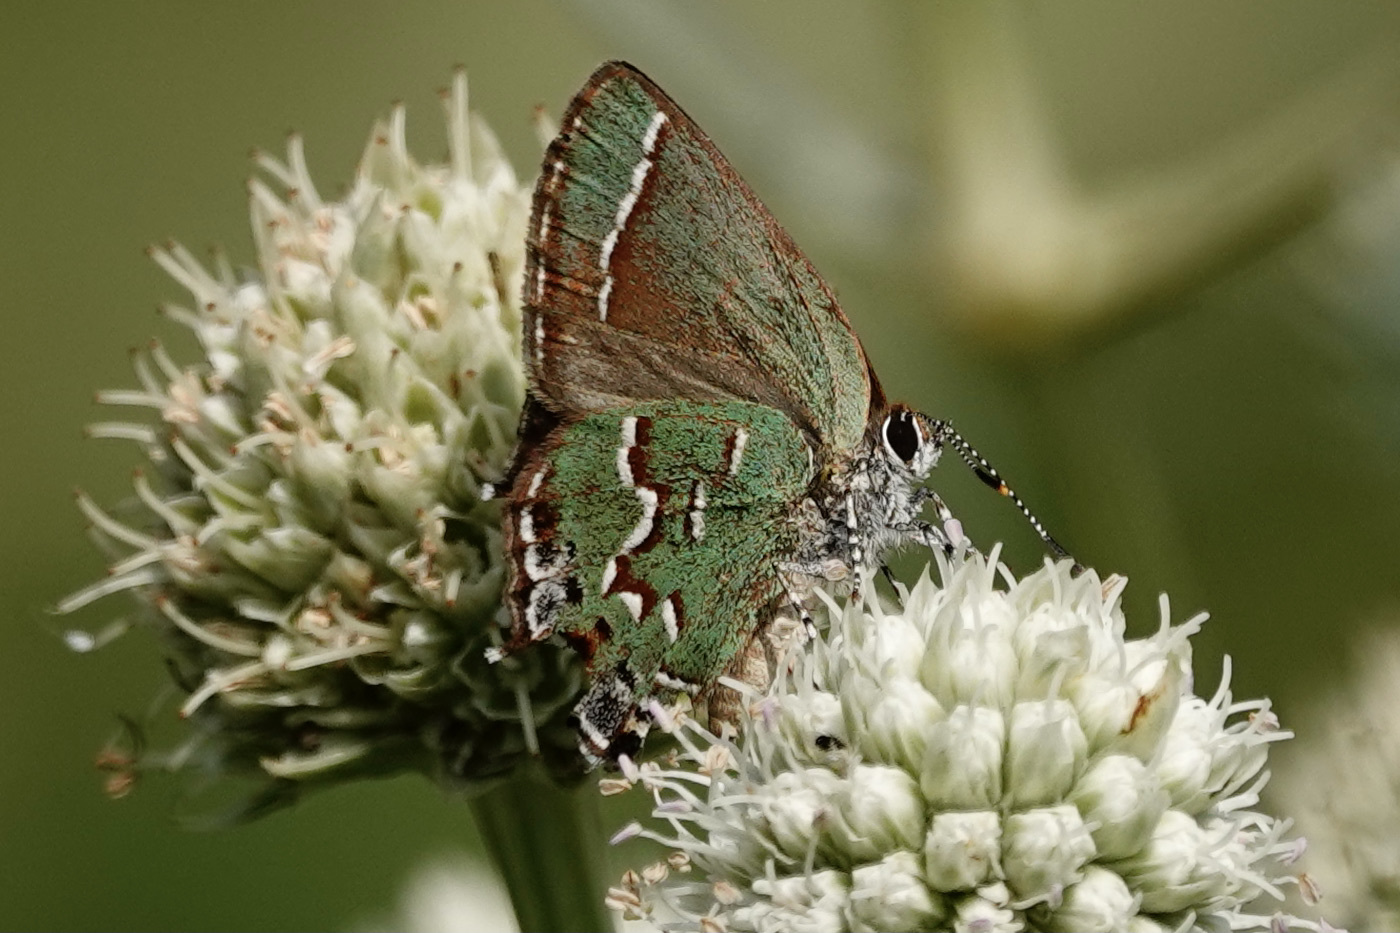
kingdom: Animalia
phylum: Arthropoda
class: Insecta
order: Lepidoptera
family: Lycaenidae
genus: Mitoura
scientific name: Mitoura gryneus
